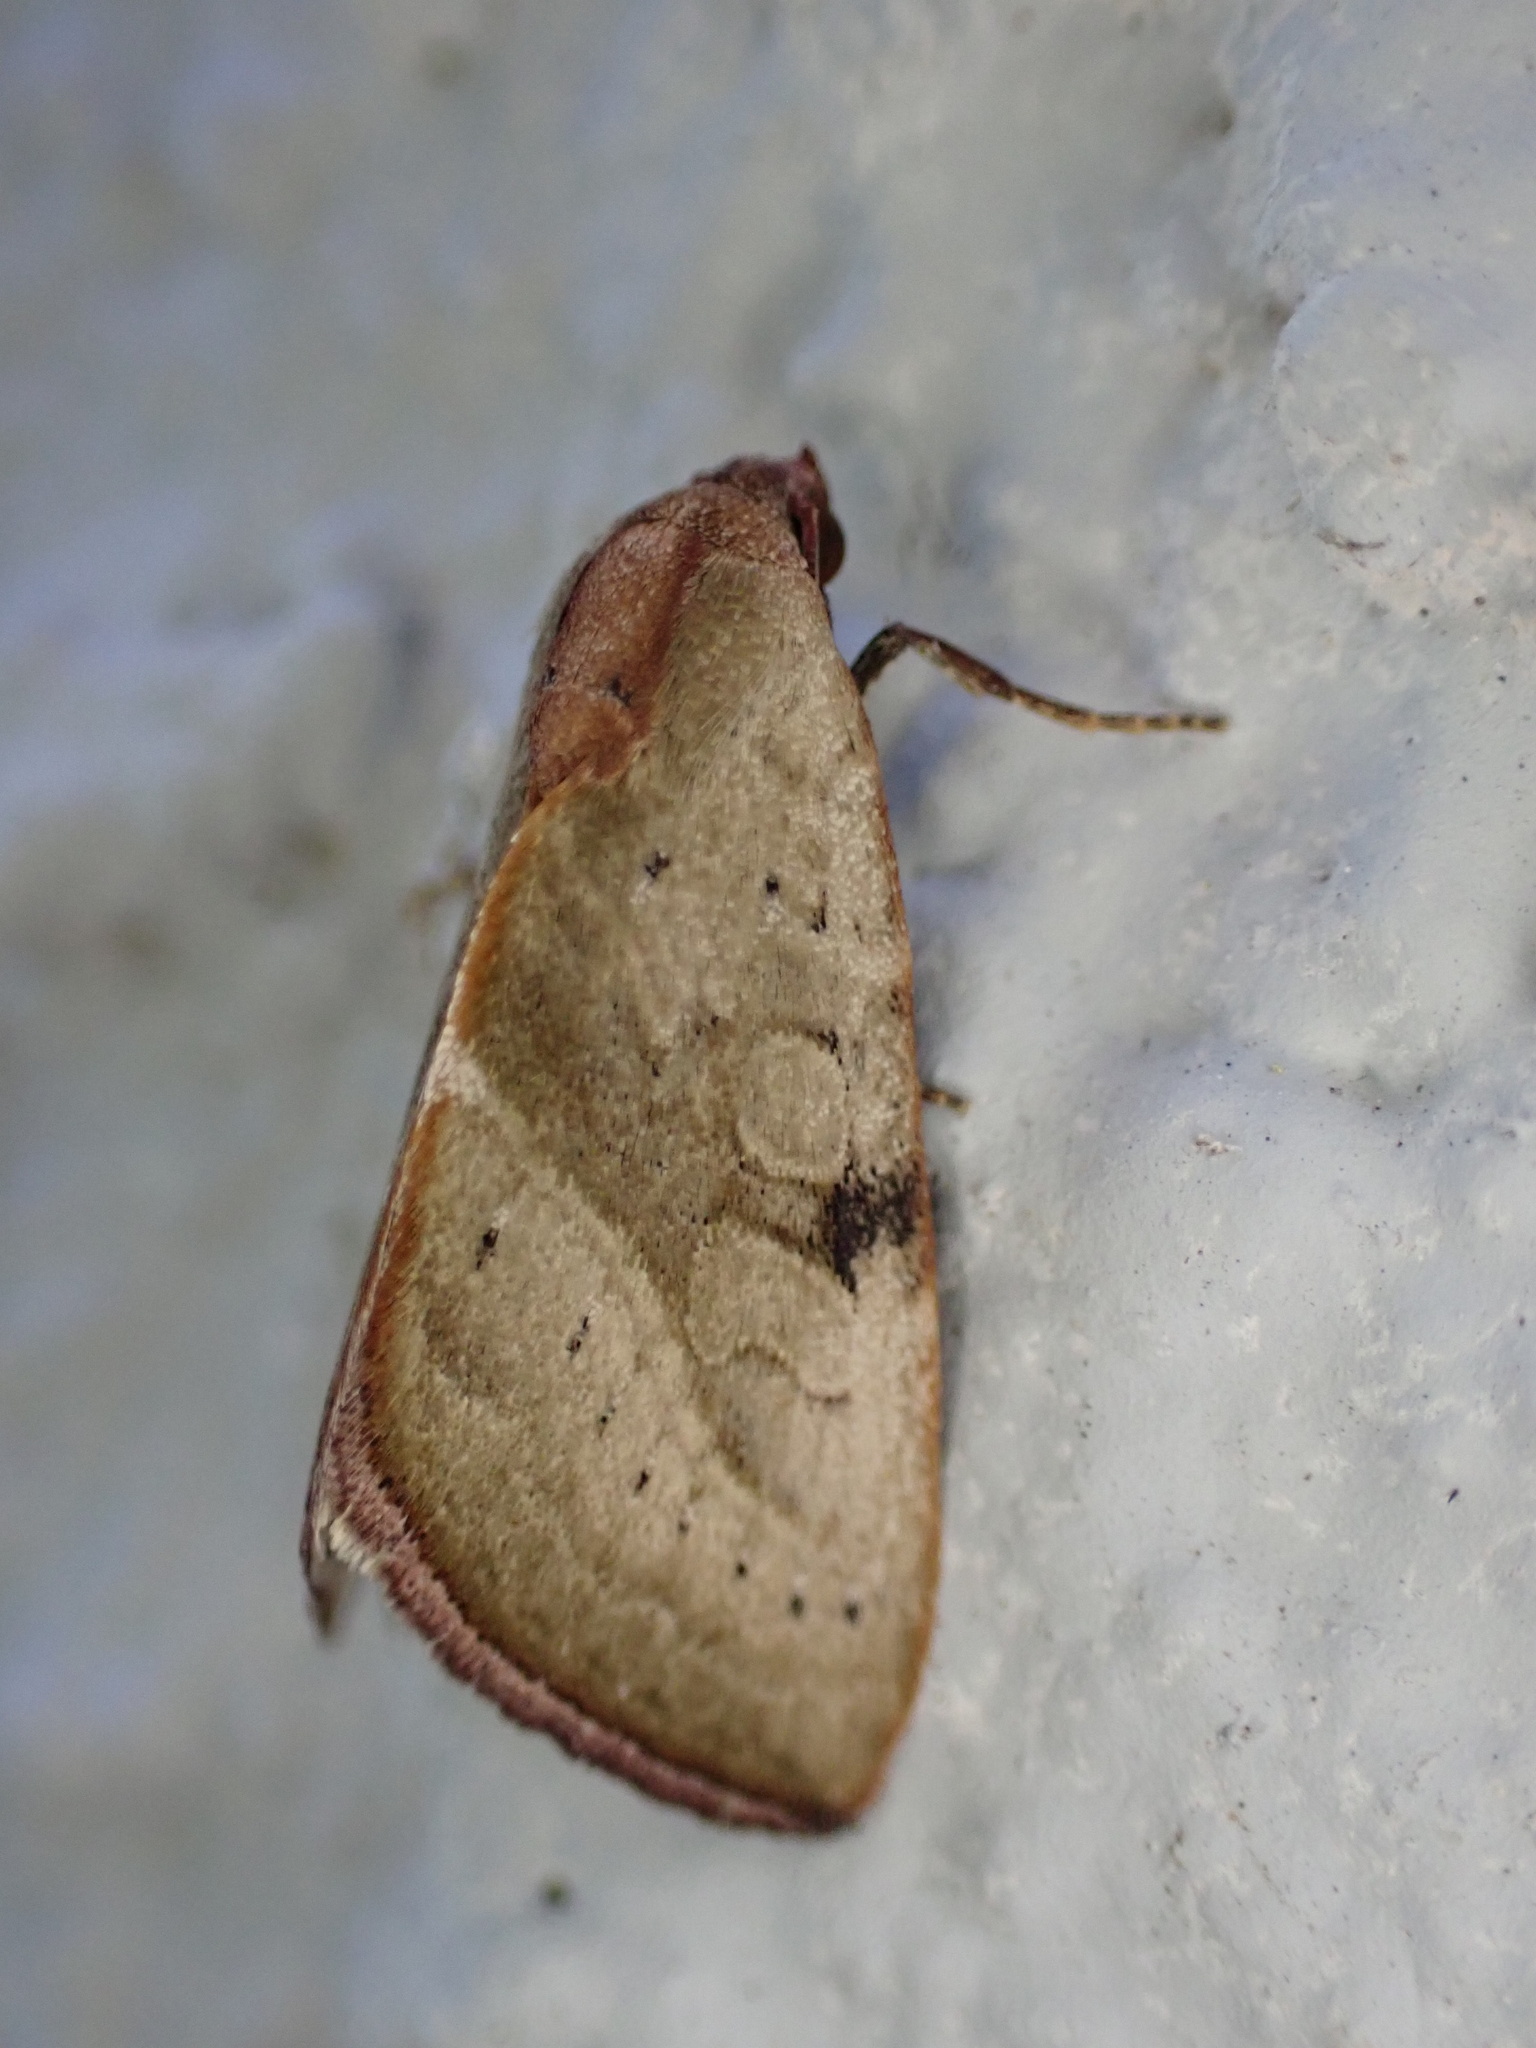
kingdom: Animalia
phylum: Arthropoda
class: Insecta
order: Lepidoptera
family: Noctuidae
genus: Galgula
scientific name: Galgula partita
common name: Wedgeling
